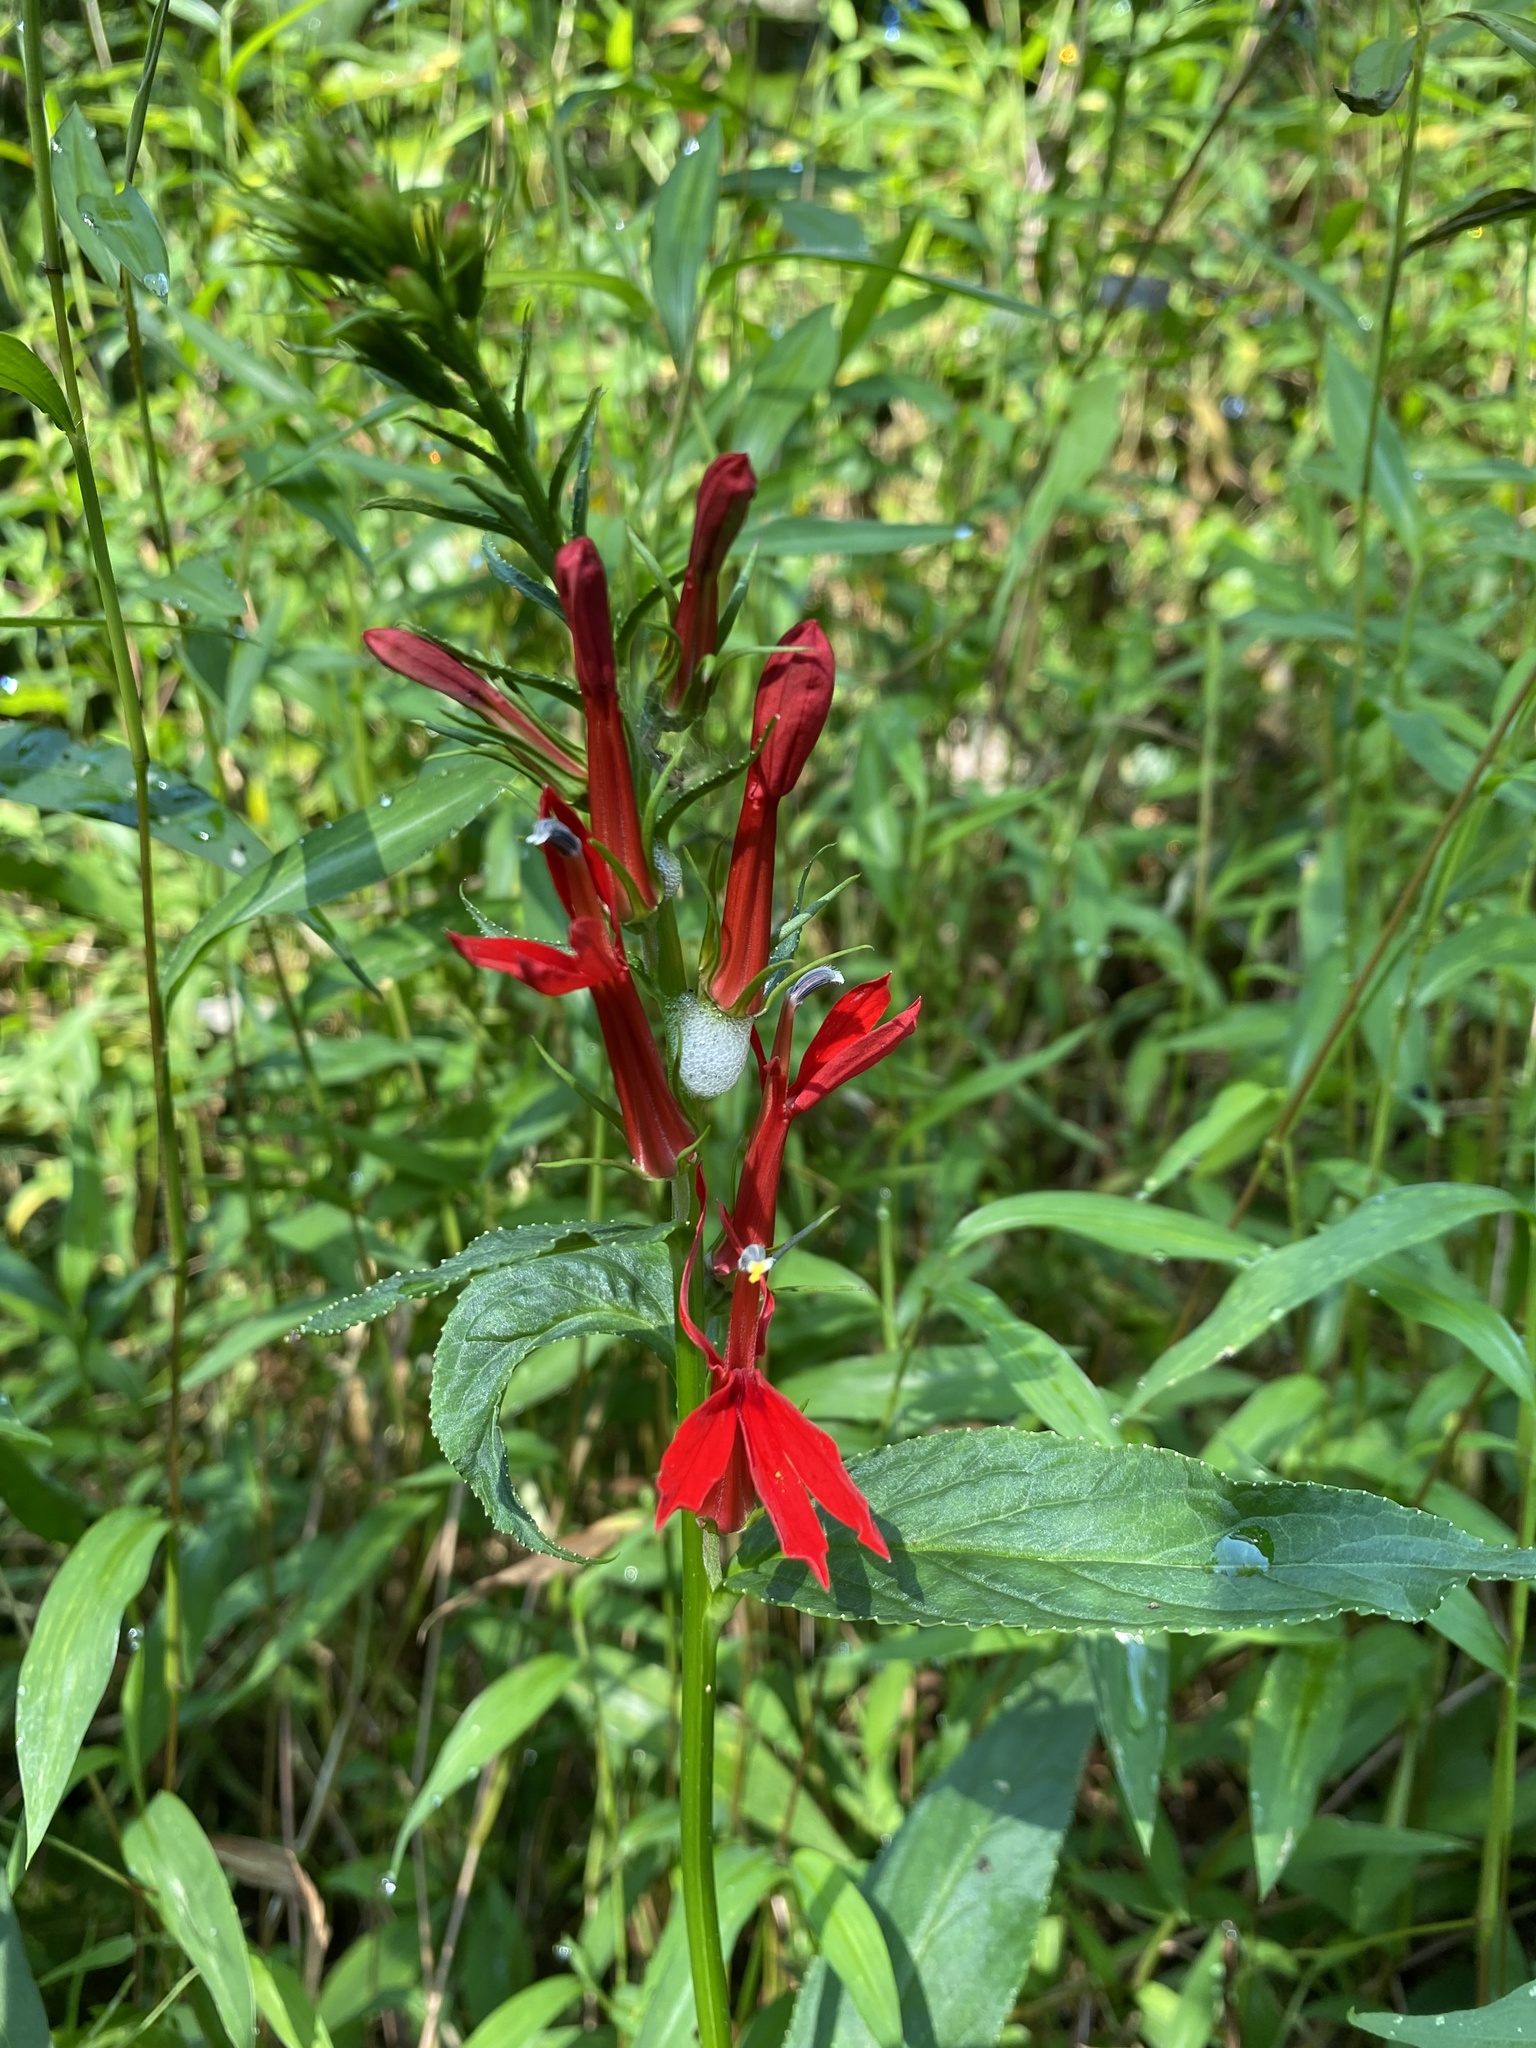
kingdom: Plantae
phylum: Tracheophyta
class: Magnoliopsida
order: Asterales
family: Campanulaceae
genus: Lobelia
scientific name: Lobelia cardinalis
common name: Cardinal flower
